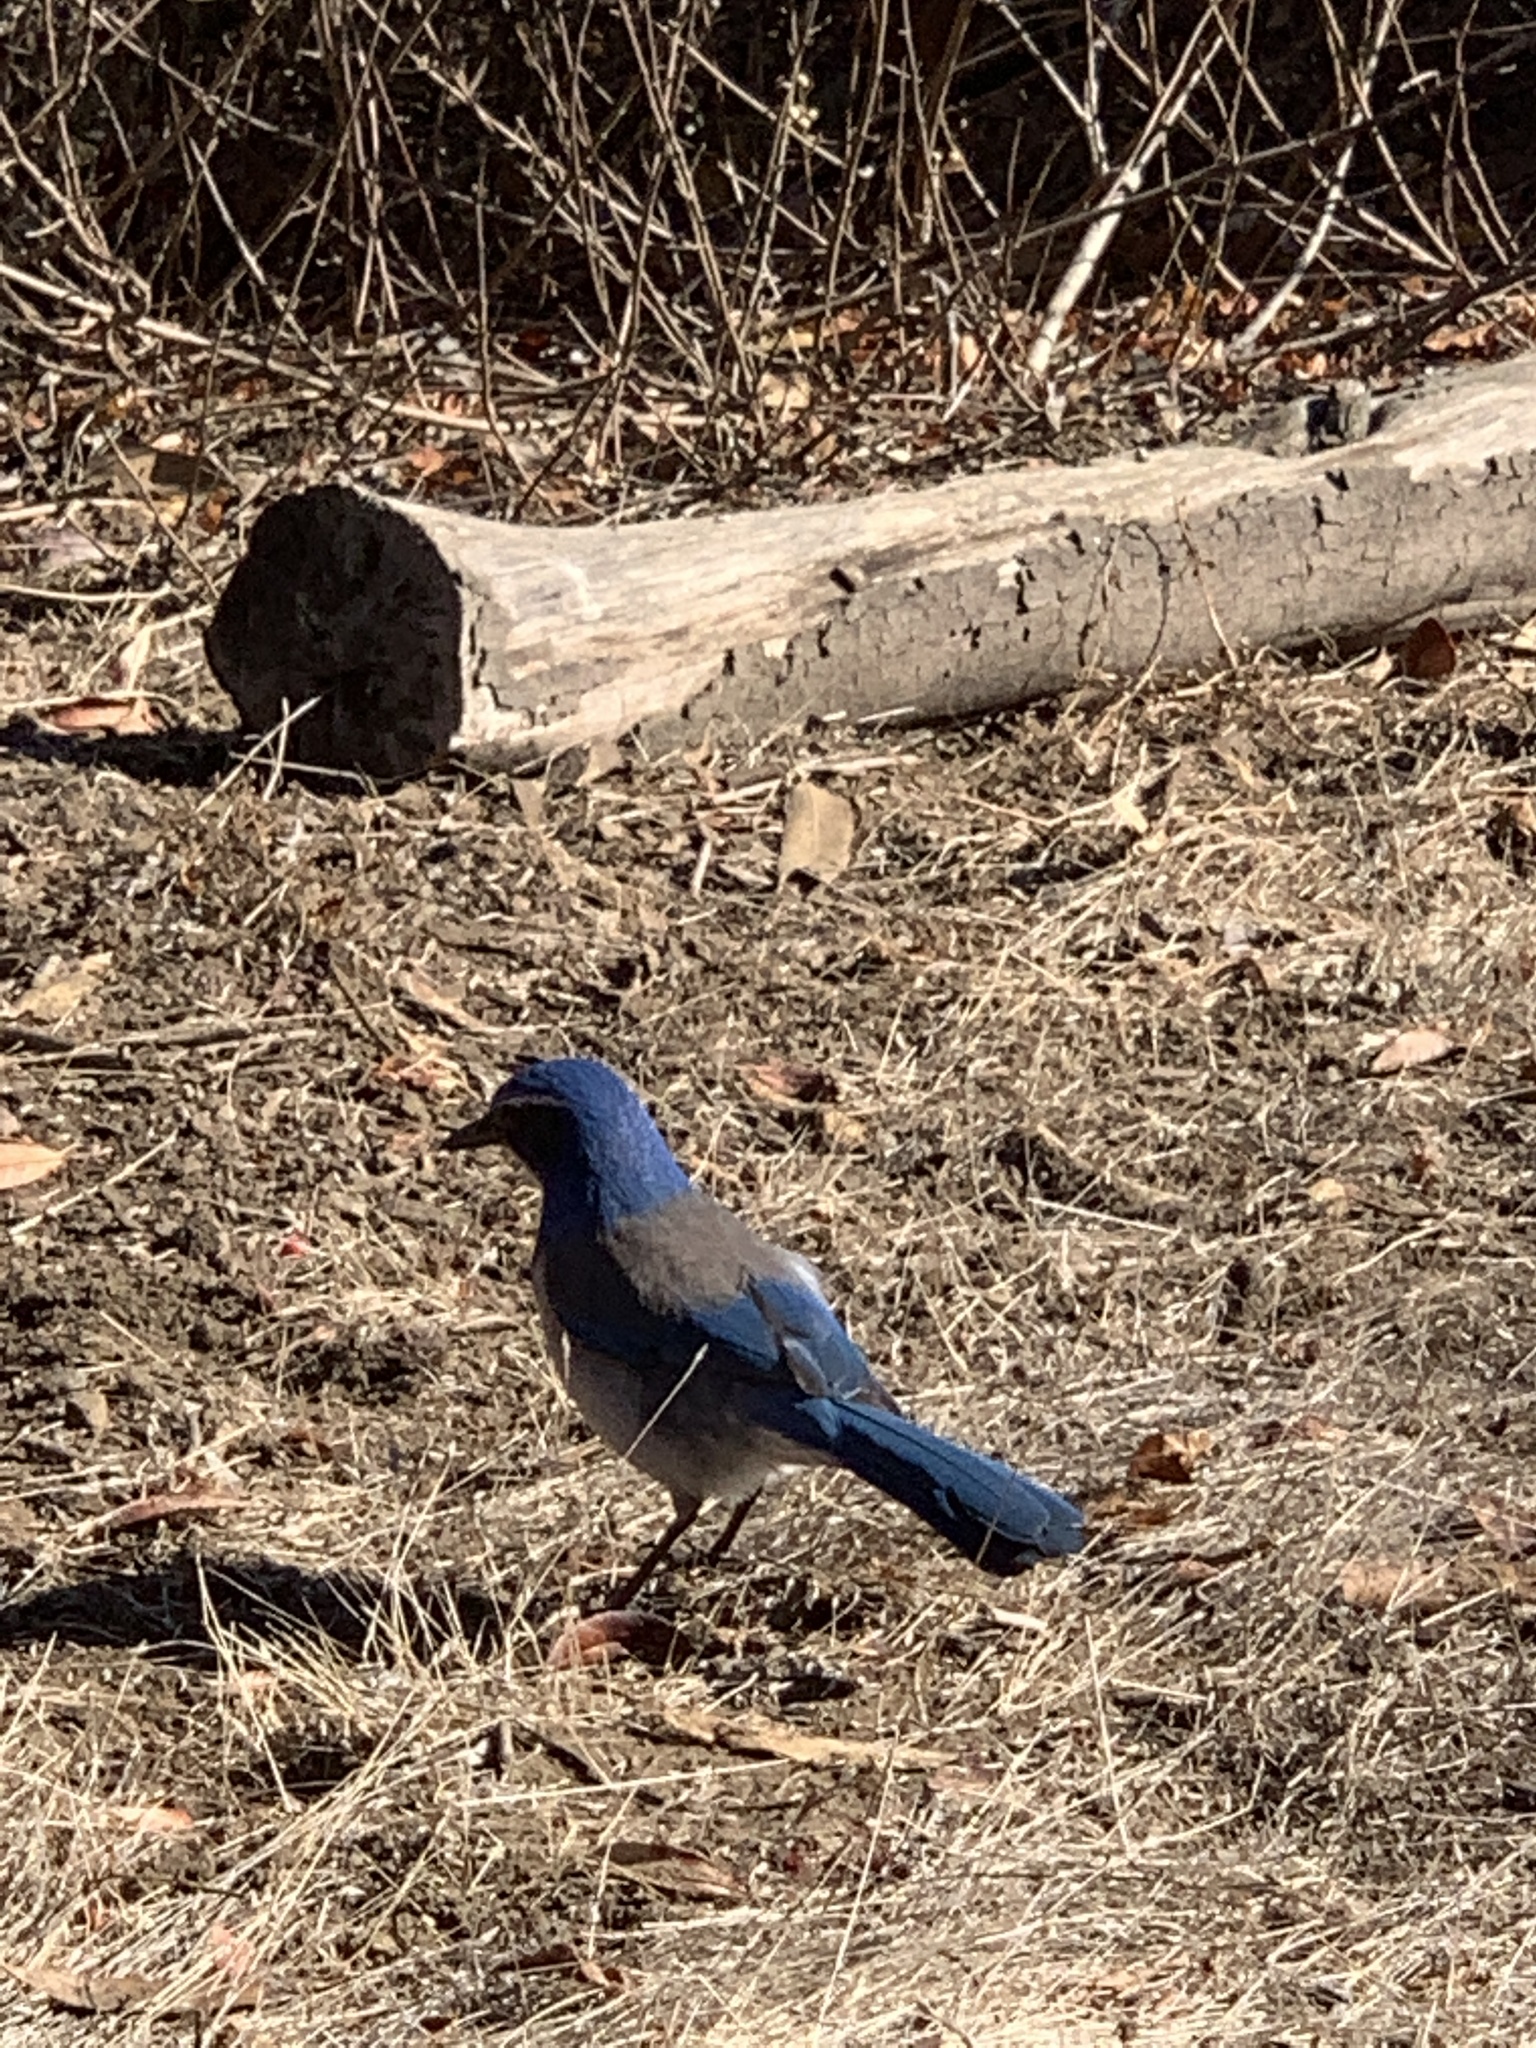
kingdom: Animalia
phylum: Chordata
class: Aves
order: Passeriformes
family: Corvidae
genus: Aphelocoma
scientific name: Aphelocoma californica
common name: California scrub-jay
